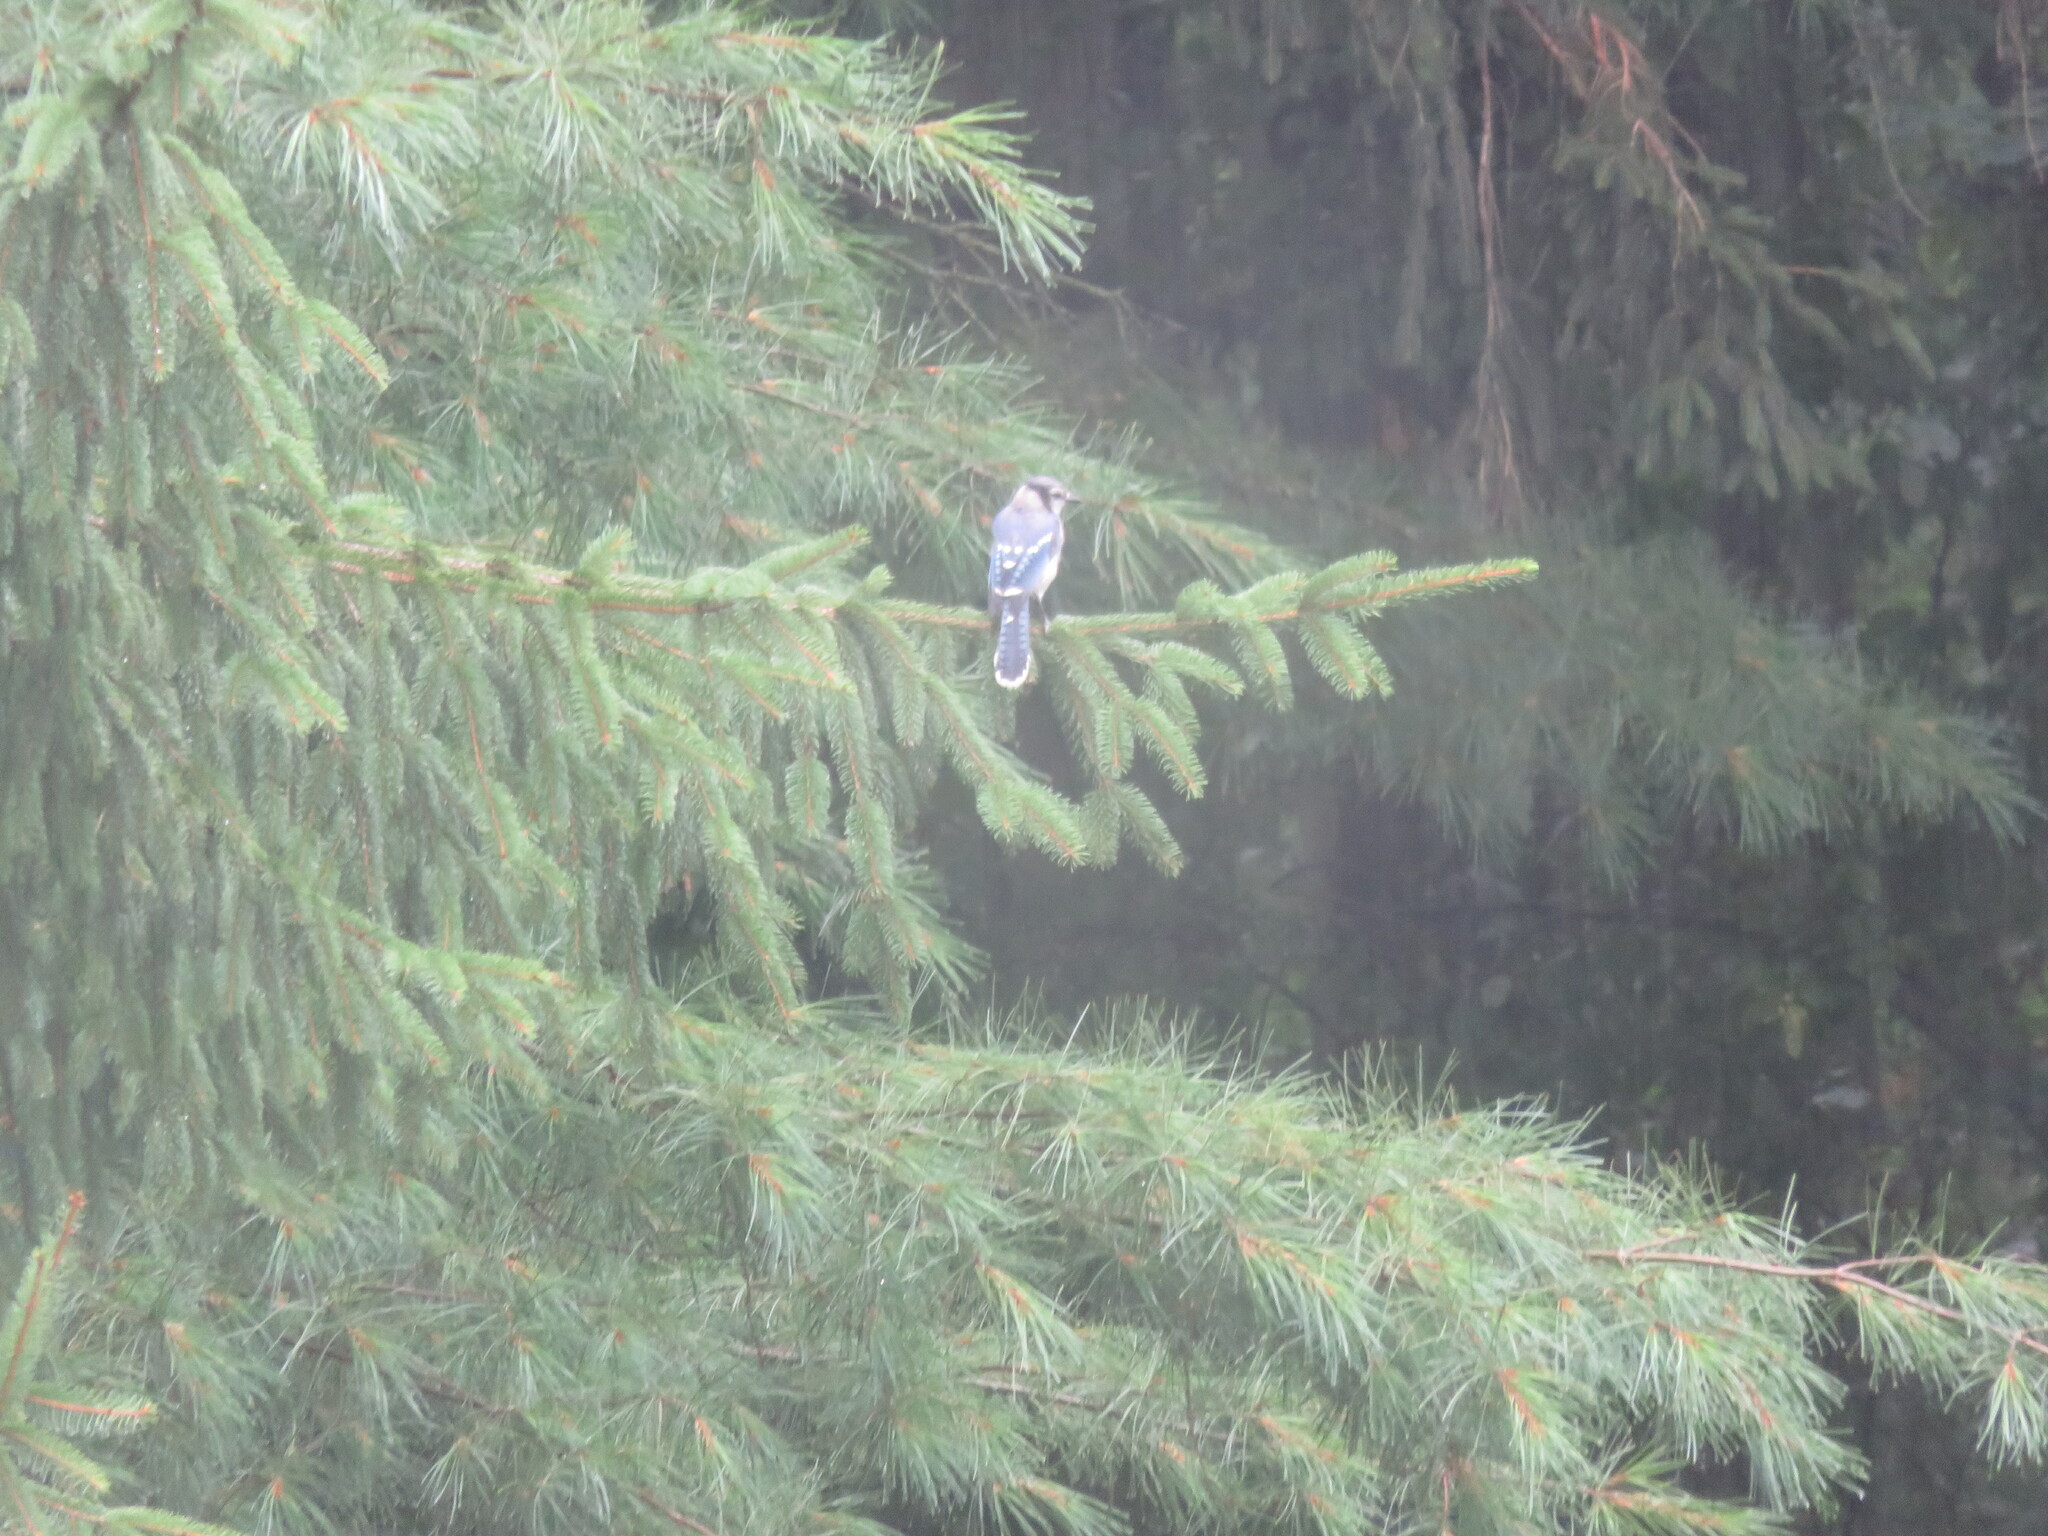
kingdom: Animalia
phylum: Chordata
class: Aves
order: Passeriformes
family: Corvidae
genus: Cyanocitta
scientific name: Cyanocitta cristata
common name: Blue jay
